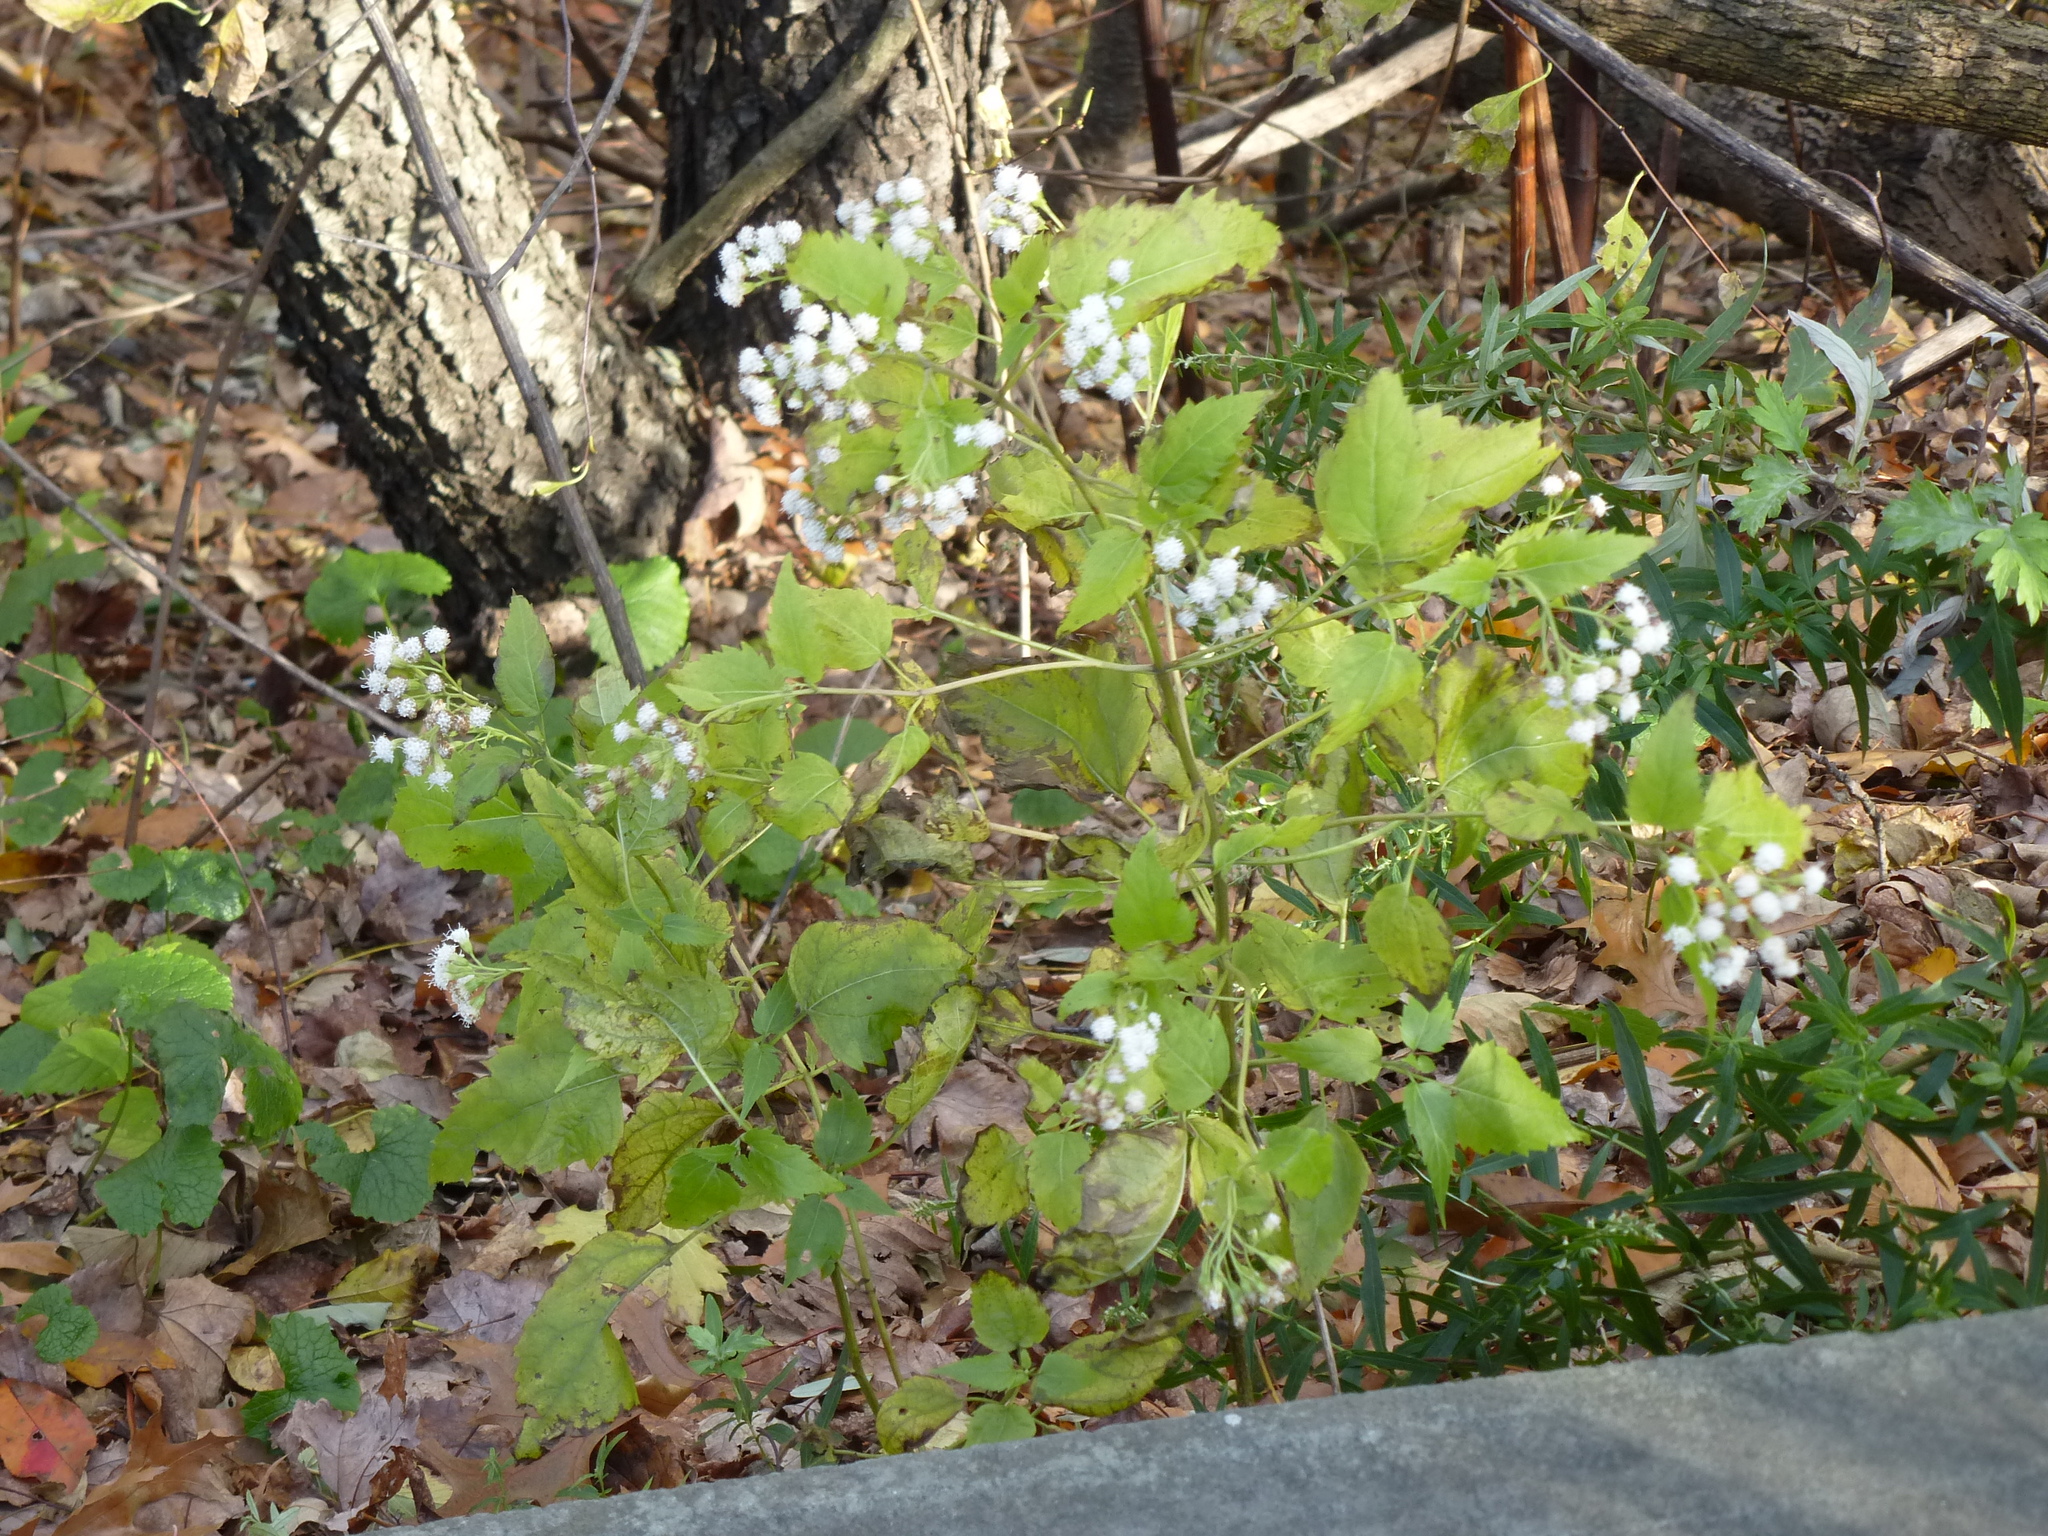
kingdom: Plantae
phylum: Tracheophyta
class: Magnoliopsida
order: Asterales
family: Asteraceae
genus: Ageratina
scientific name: Ageratina altissima
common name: White snakeroot
